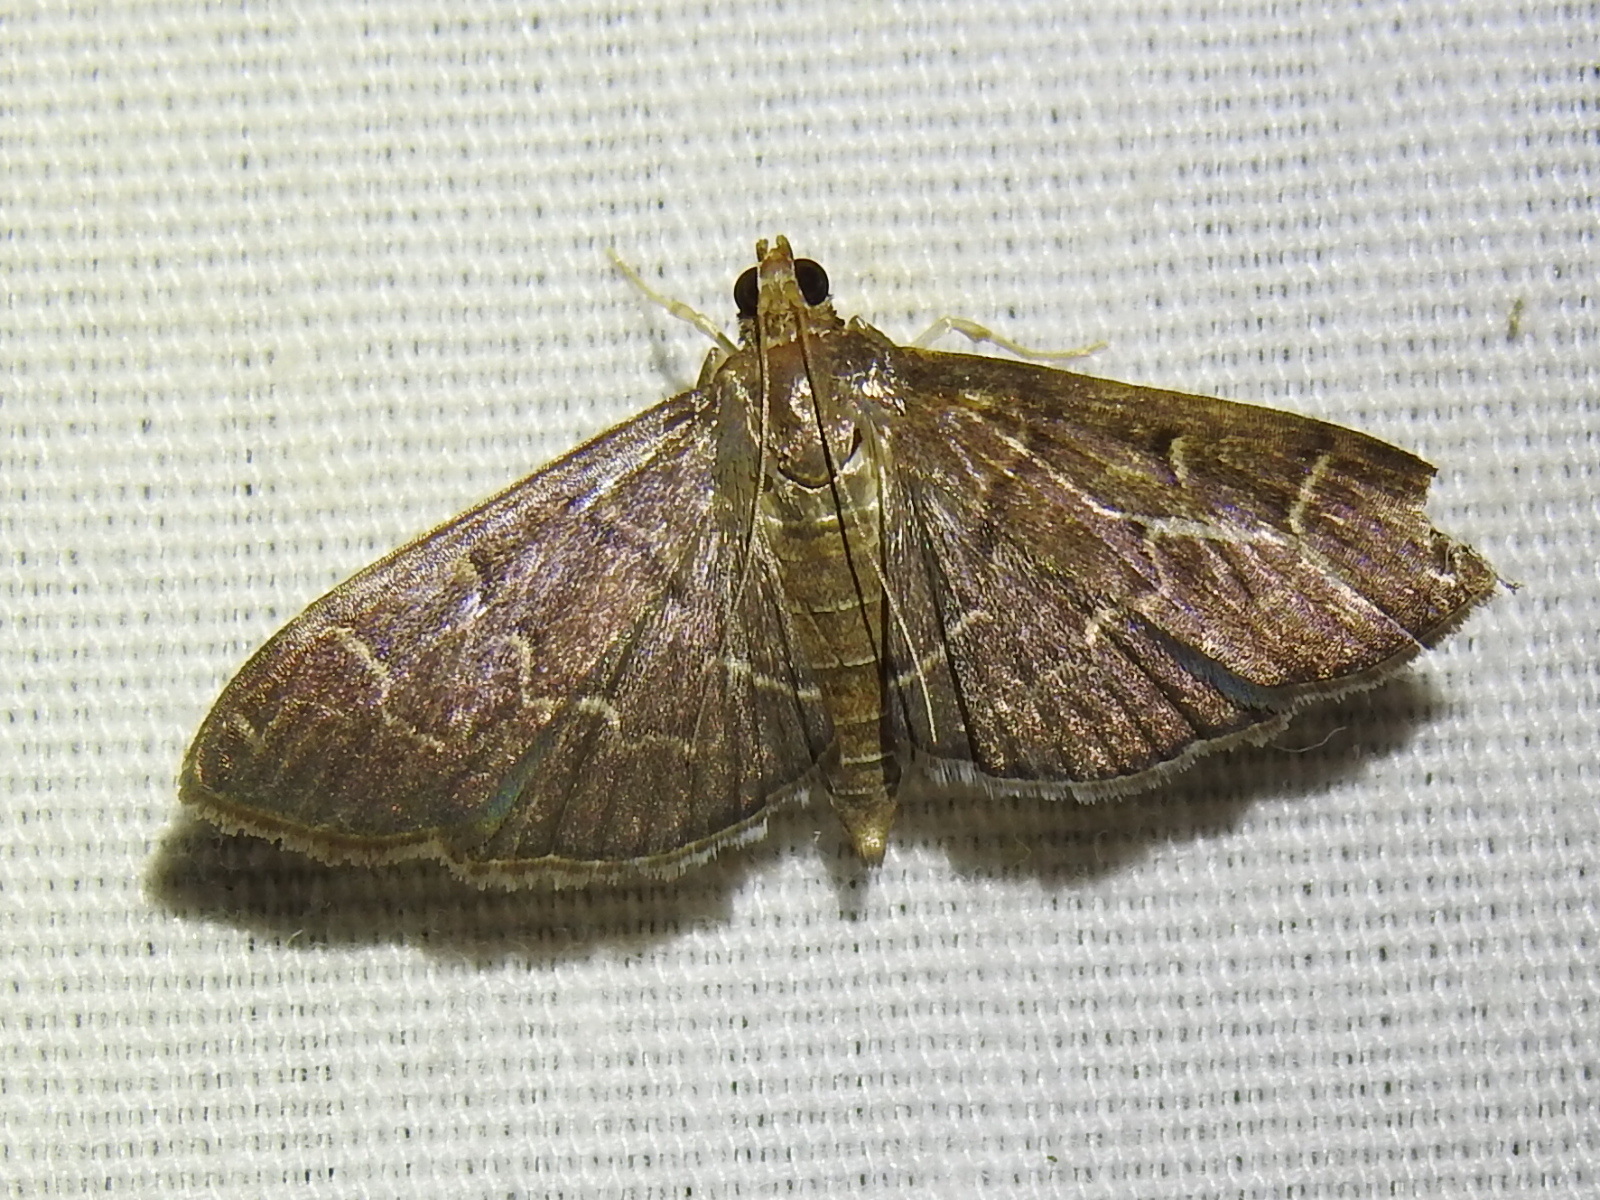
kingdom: Animalia
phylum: Arthropoda
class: Insecta
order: Lepidoptera
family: Crambidae
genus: Pilocrocis
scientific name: Pilocrocis ramentalis
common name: Scraped pilocrocis
